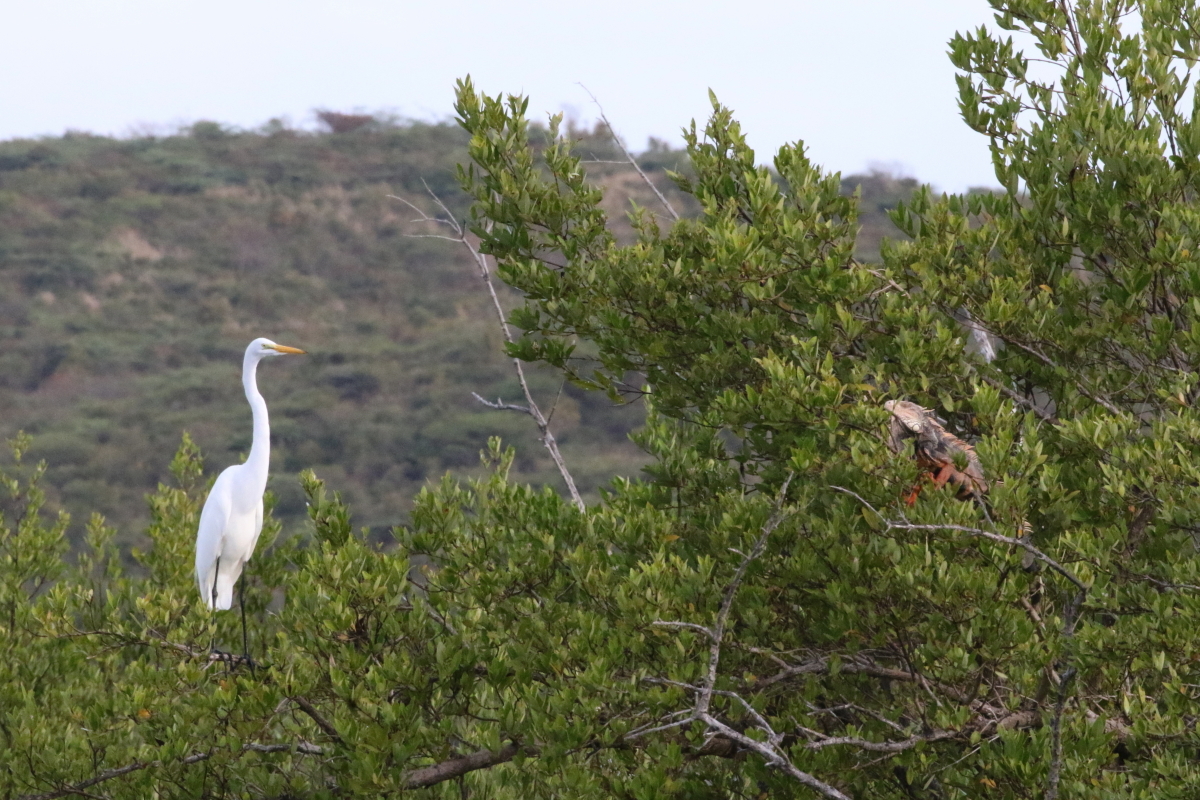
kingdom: Animalia
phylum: Chordata
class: Aves
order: Pelecaniformes
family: Ardeidae
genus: Ardea
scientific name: Ardea alba
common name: Great egret
